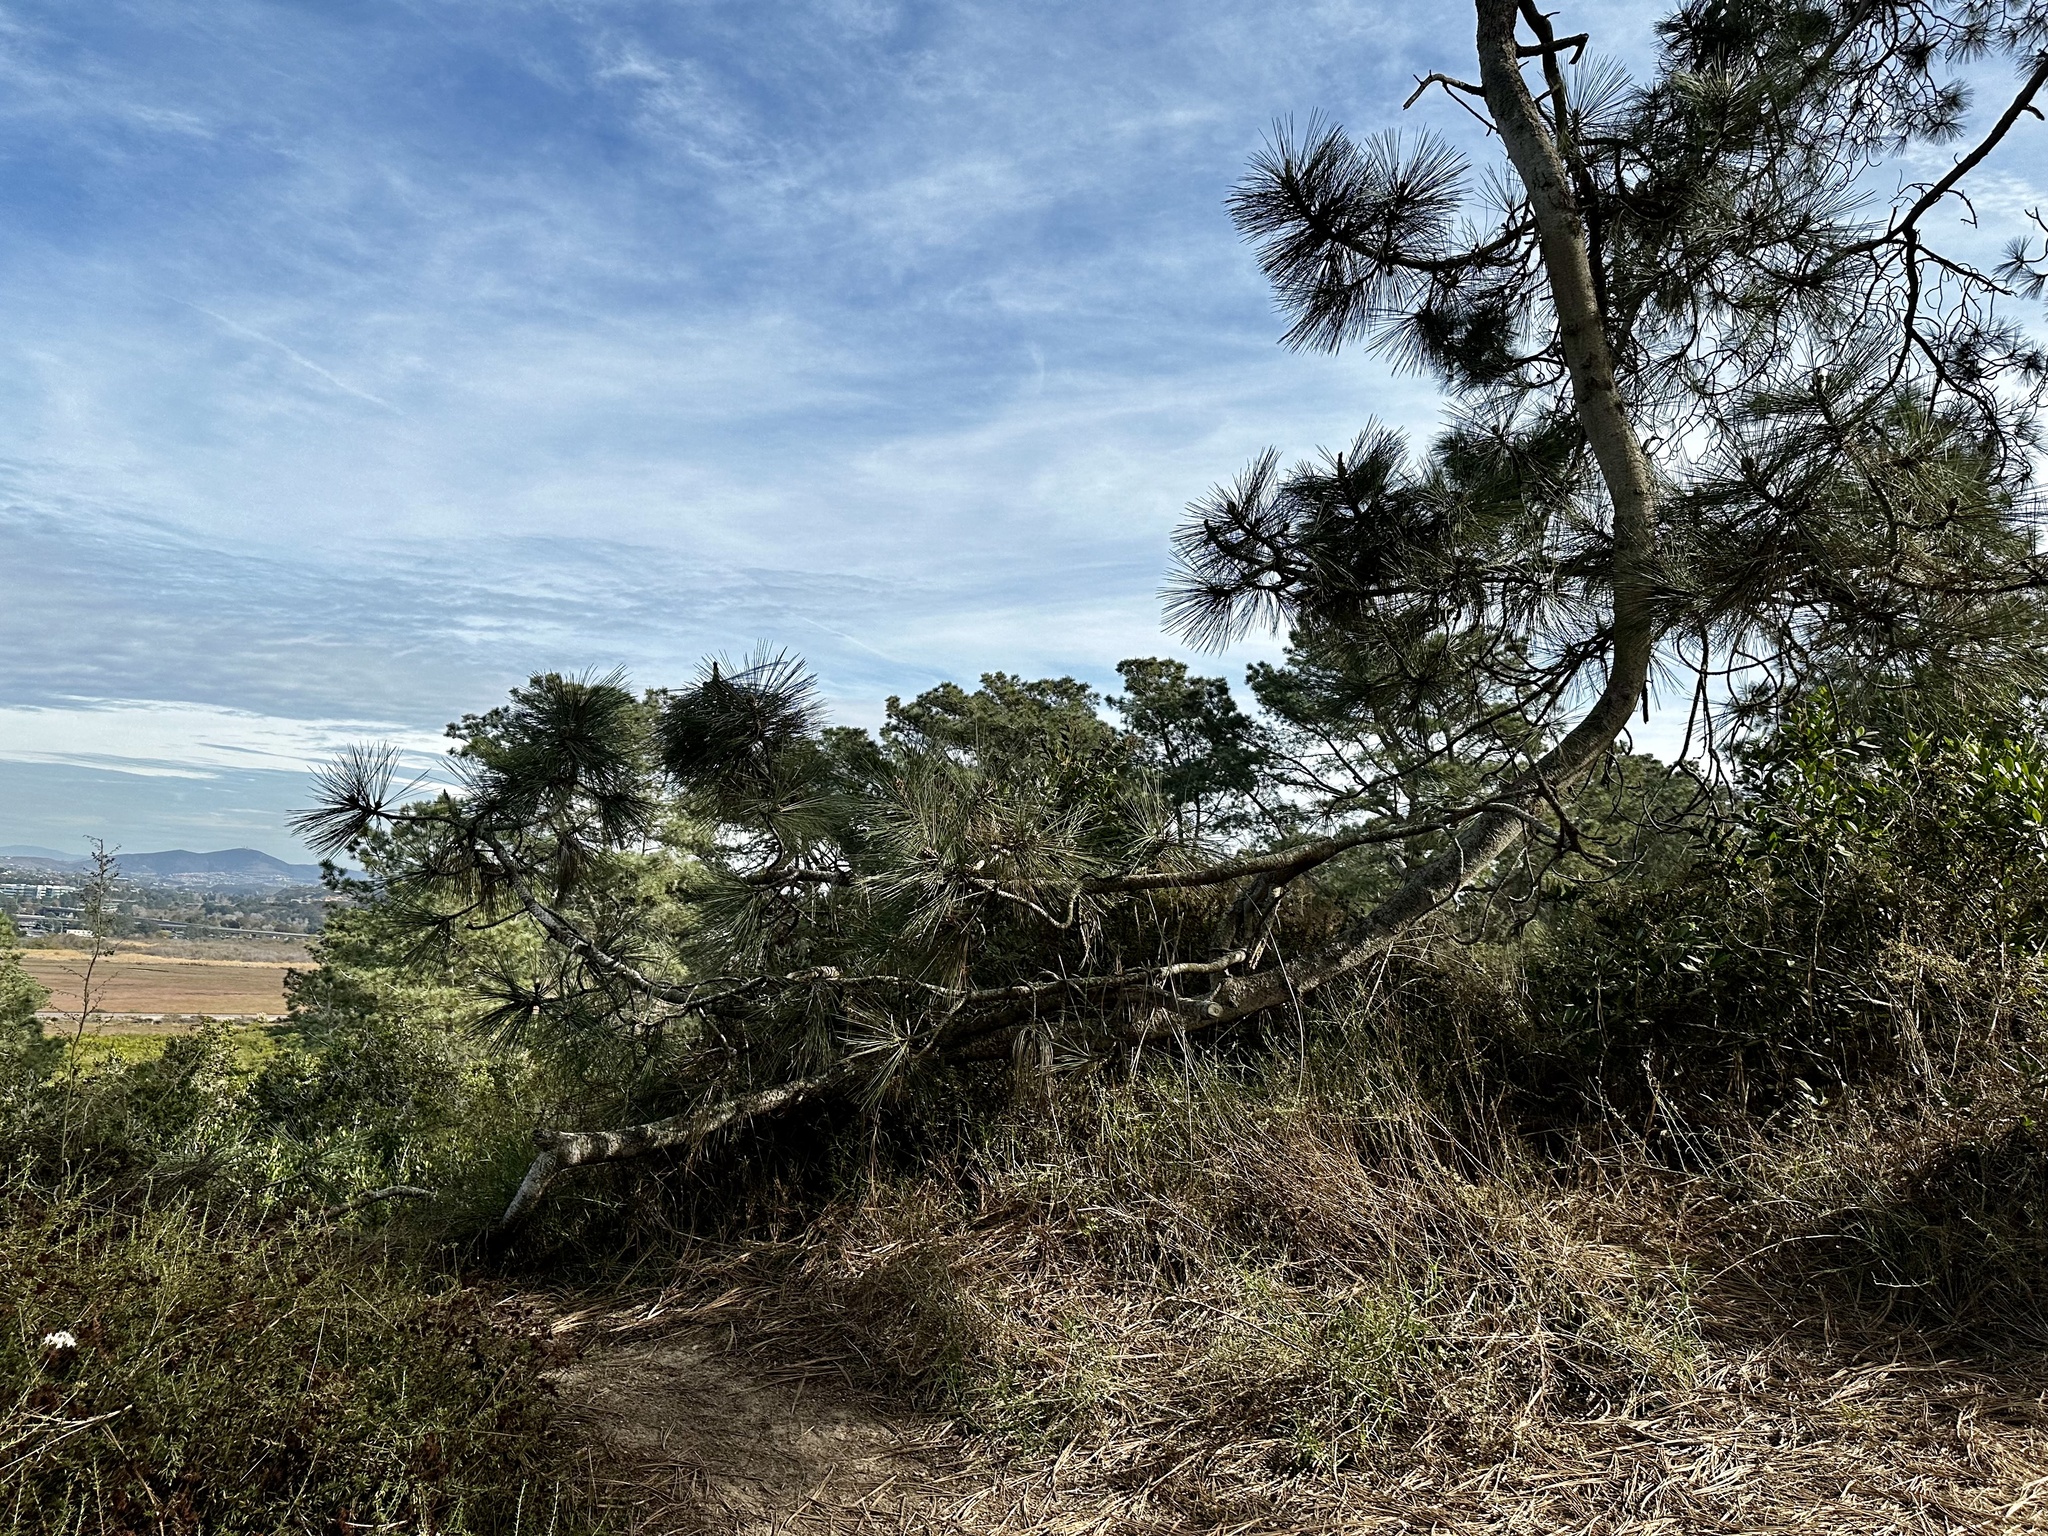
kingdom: Plantae
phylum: Tracheophyta
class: Pinopsida
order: Pinales
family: Pinaceae
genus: Pinus
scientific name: Pinus torreyana
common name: Torrey pine
